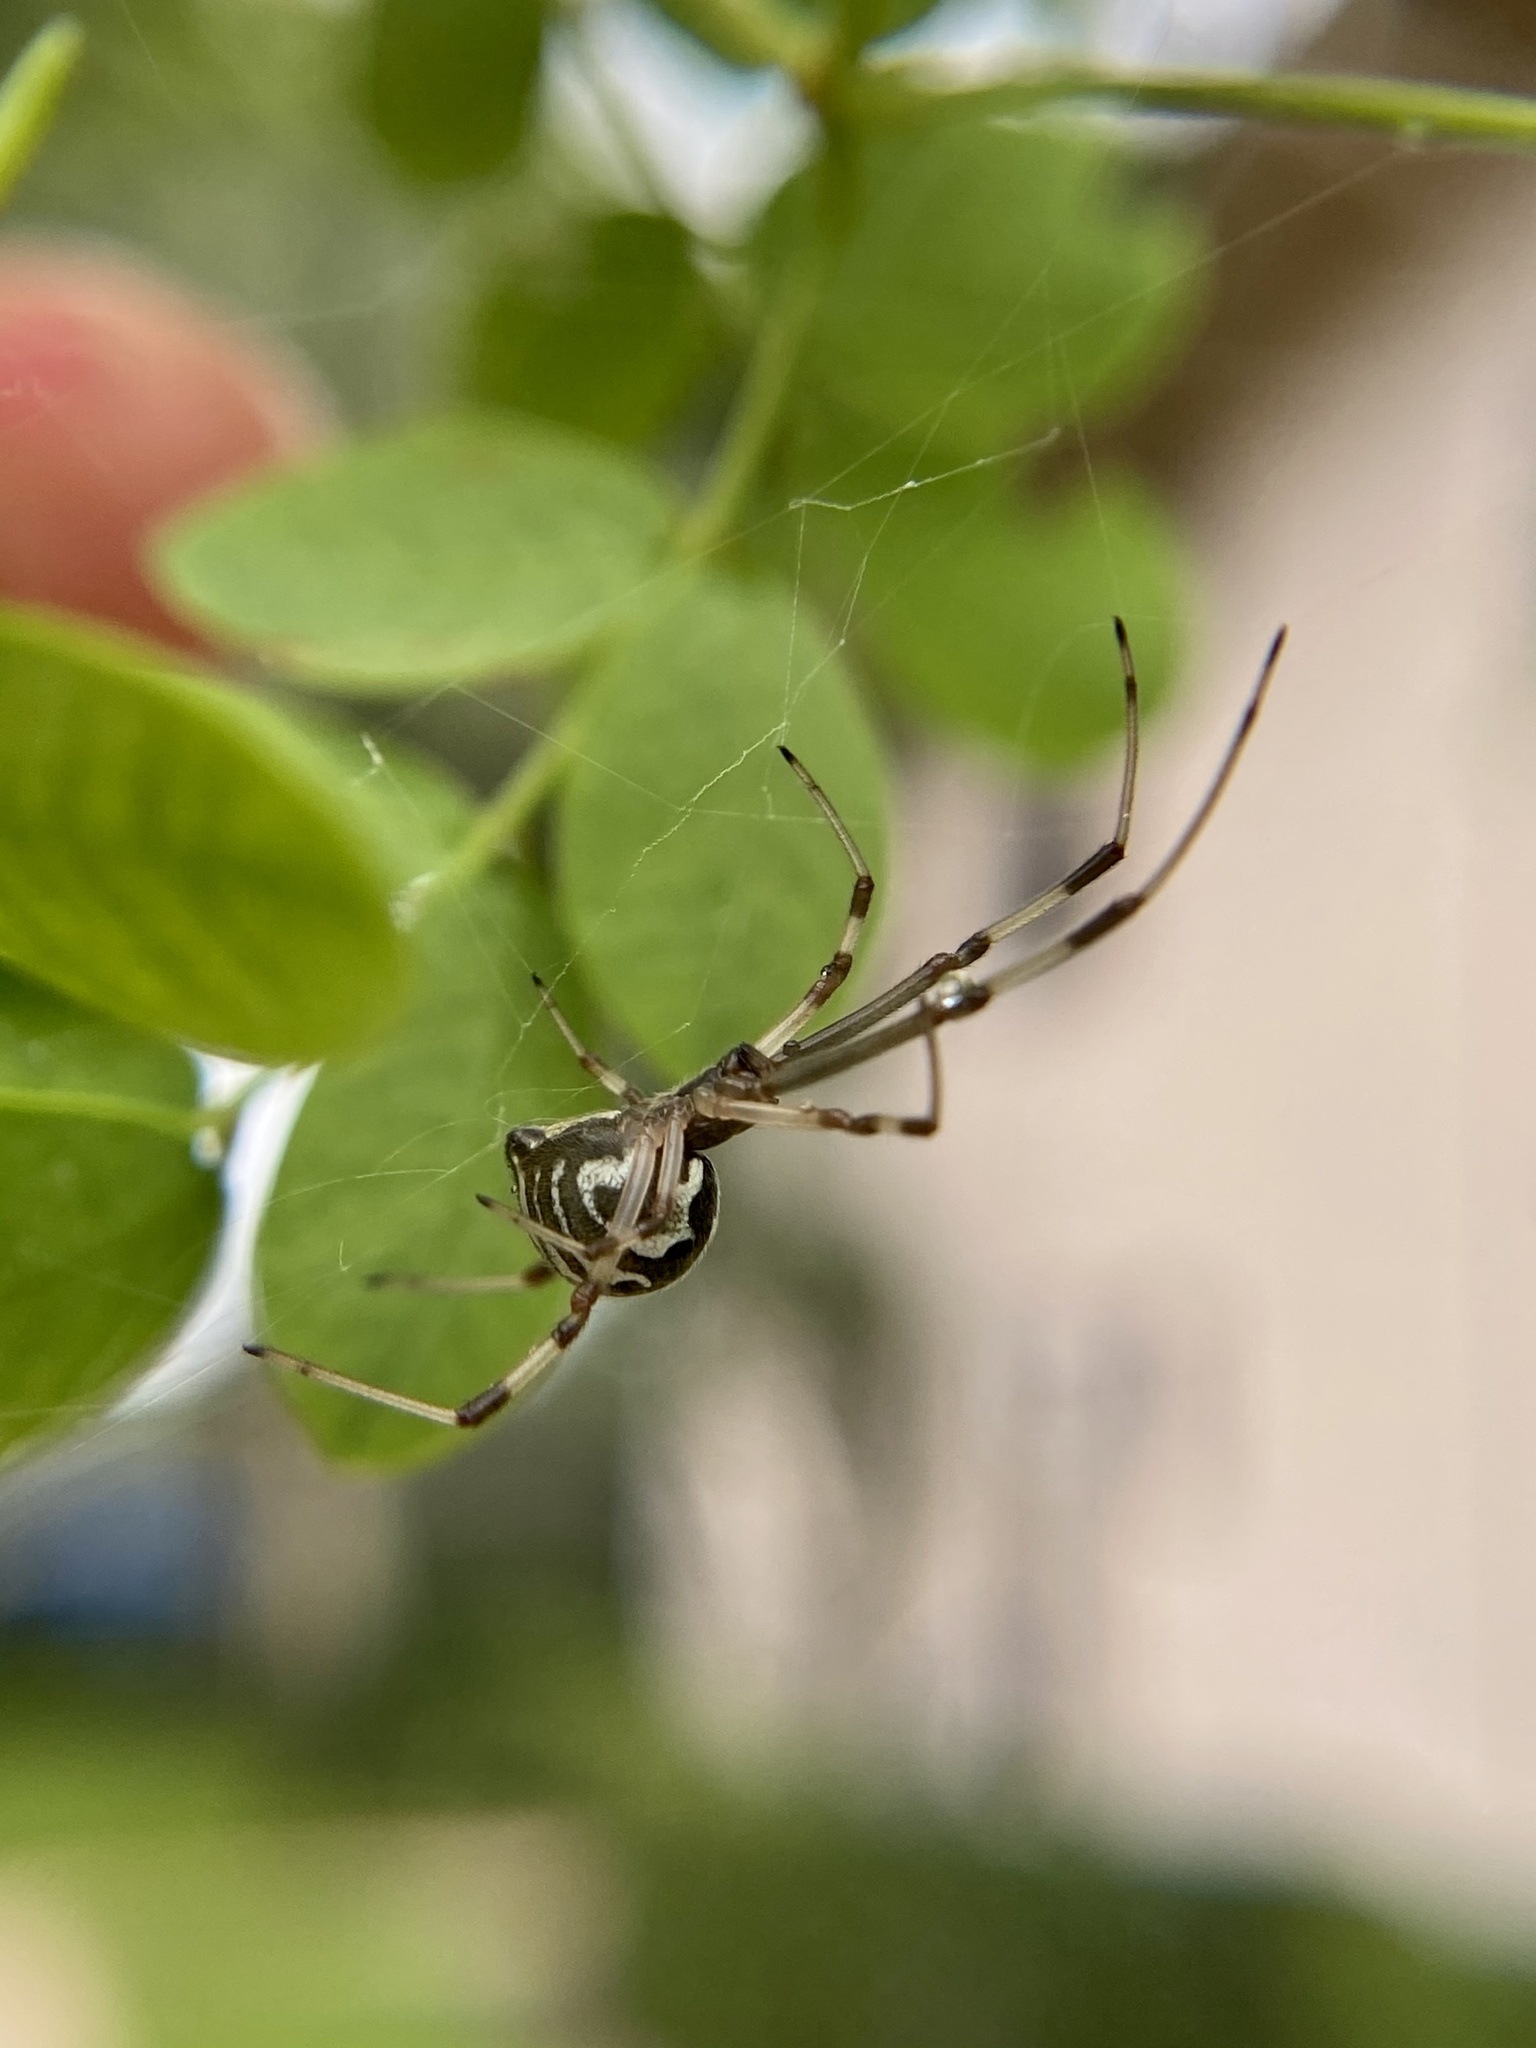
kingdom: Animalia
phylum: Arthropoda
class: Arachnida
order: Araneae
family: Theridiidae
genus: Latrodectus
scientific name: Latrodectus geometricus
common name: Brown widow spider
